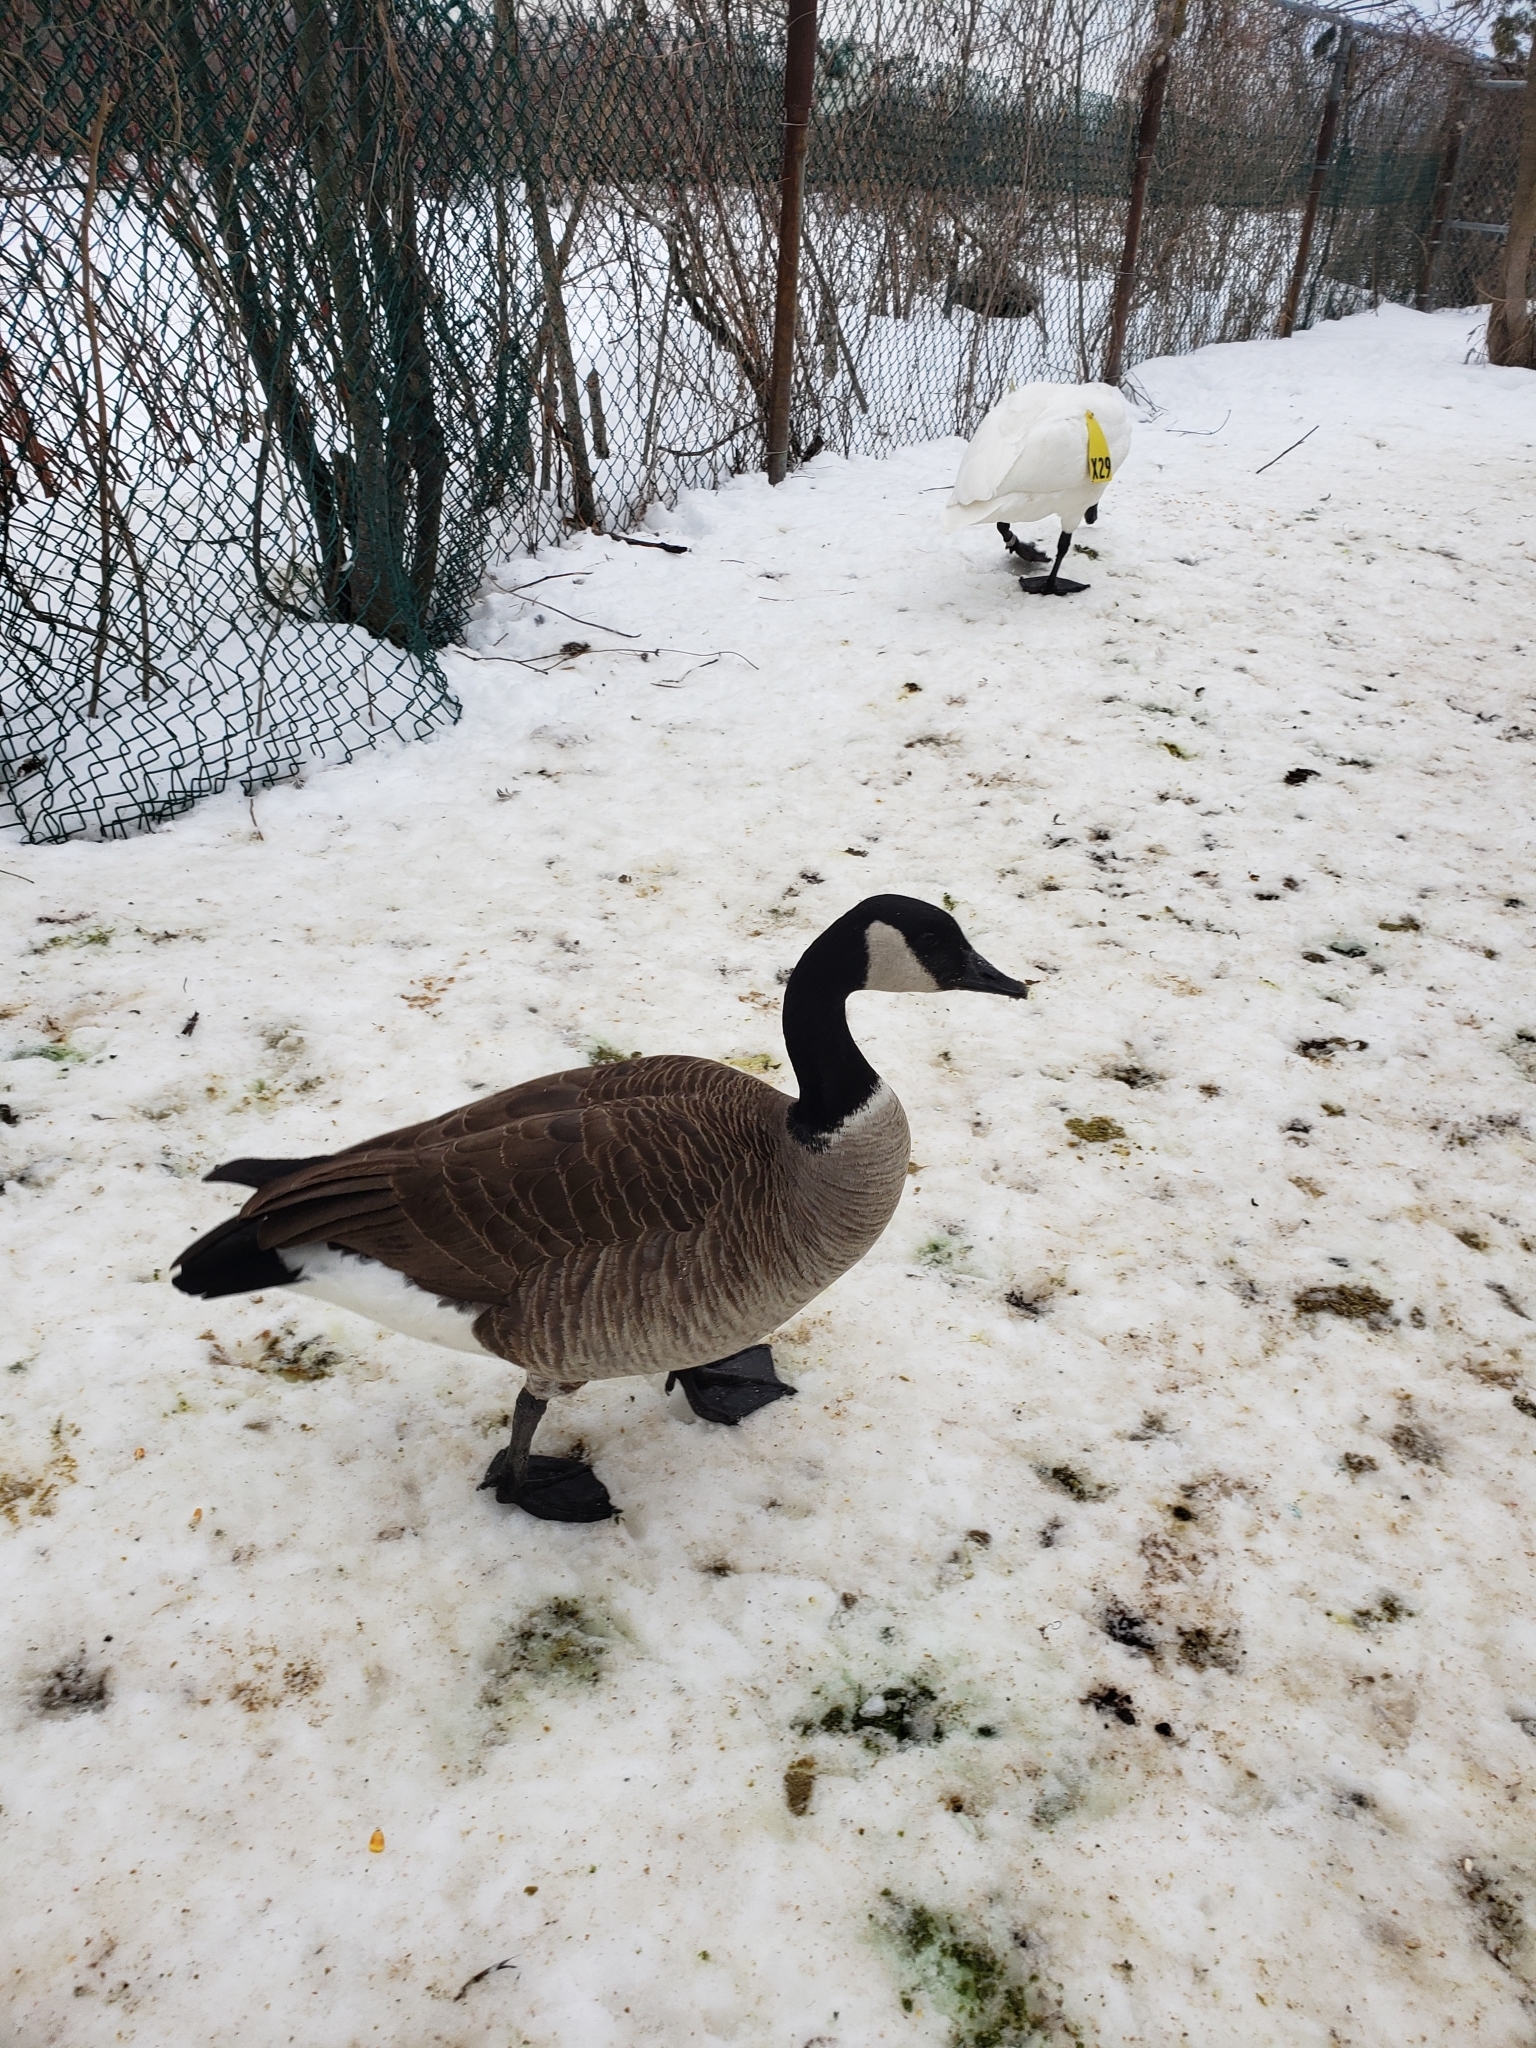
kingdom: Animalia
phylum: Chordata
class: Aves
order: Anseriformes
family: Anatidae
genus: Branta
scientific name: Branta canadensis
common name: Canada goose
